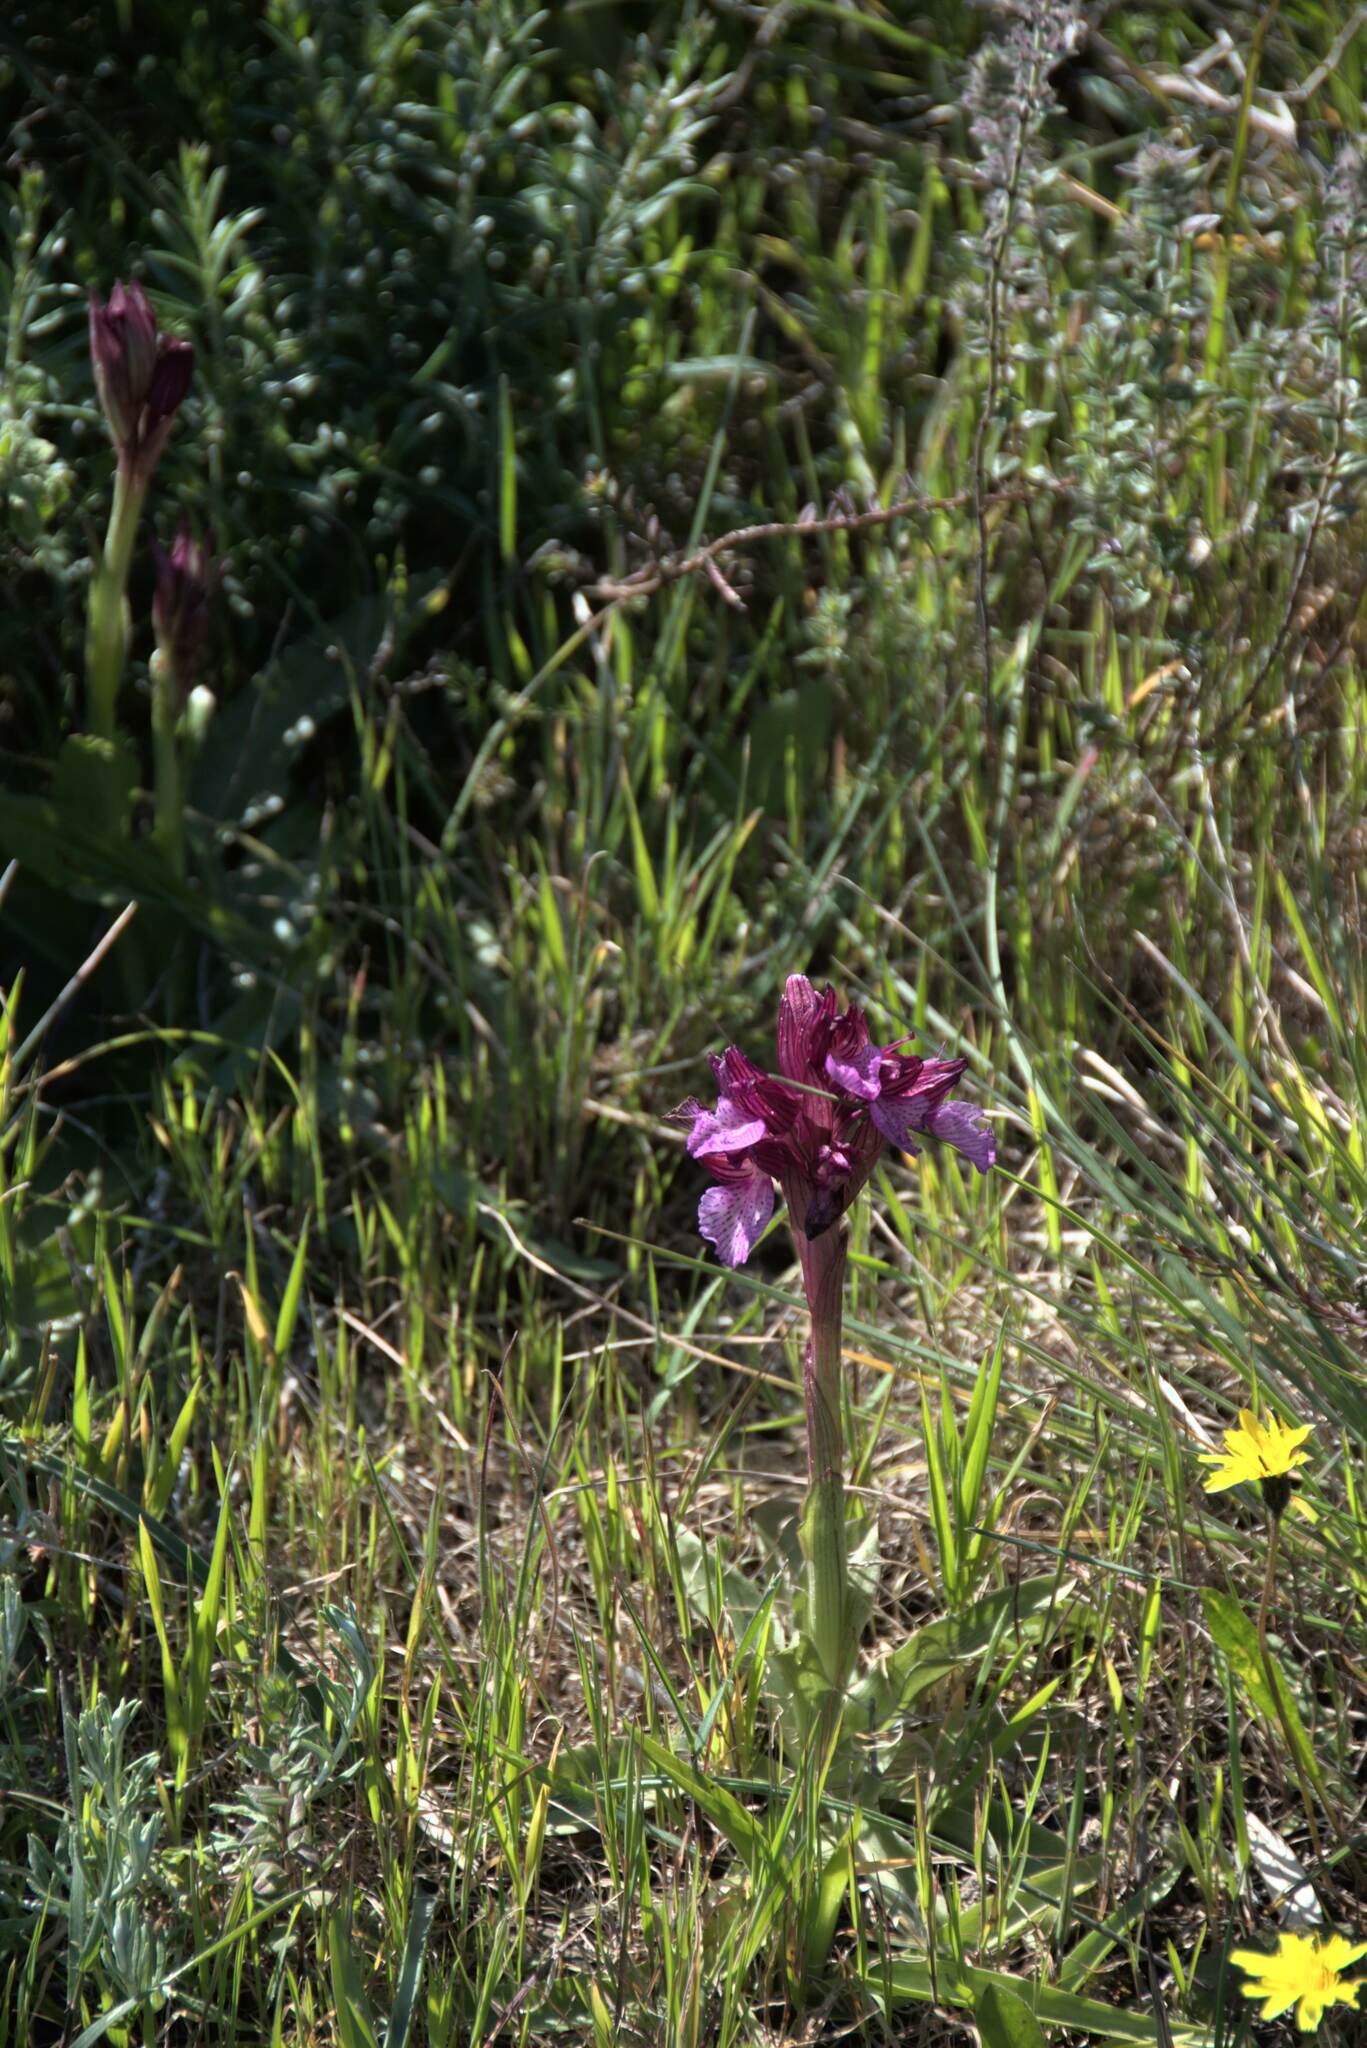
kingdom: Plantae
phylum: Tracheophyta
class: Liliopsida
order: Asparagales
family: Orchidaceae
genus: Anacamptis
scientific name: Anacamptis papilionacea
